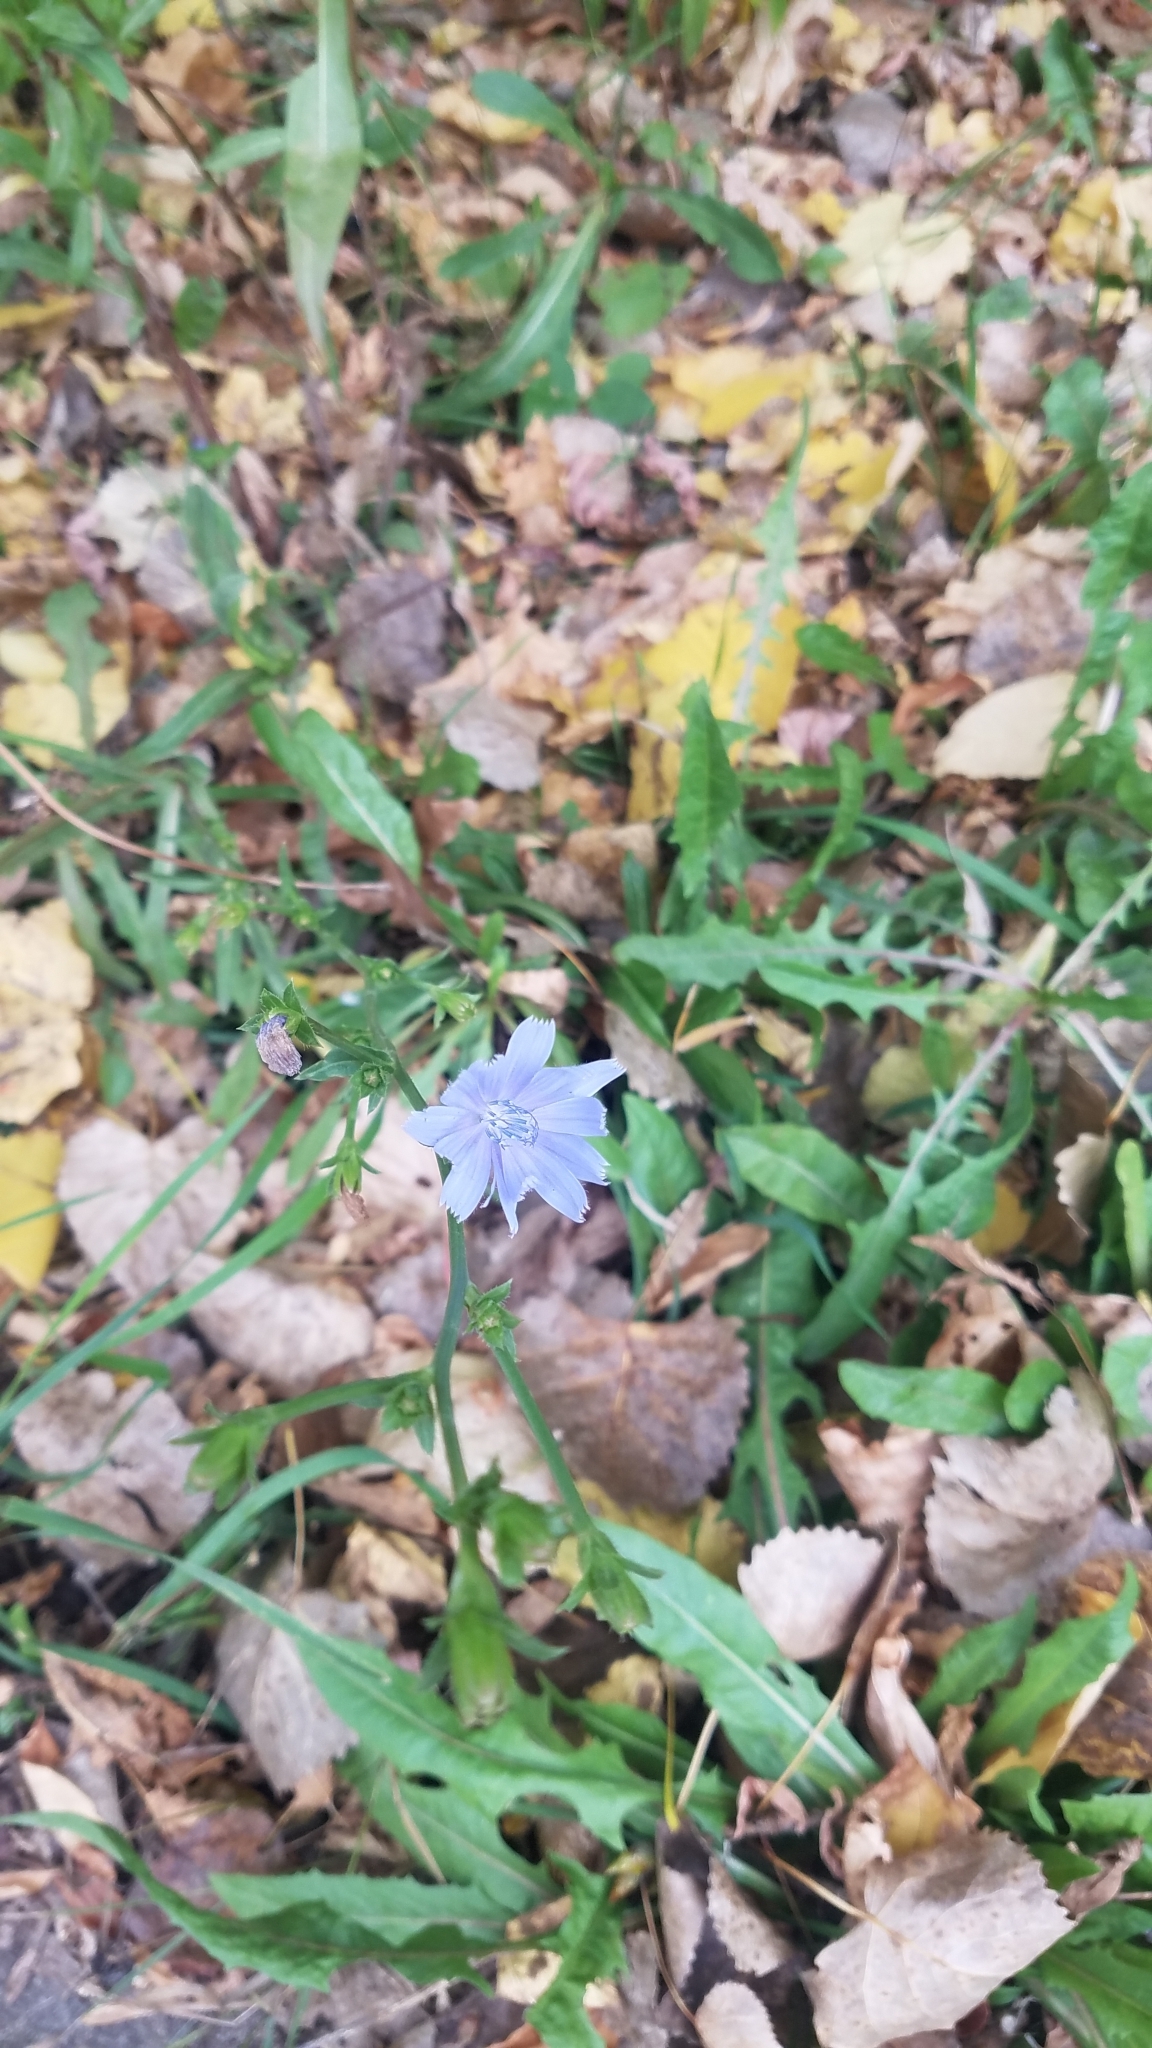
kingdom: Plantae
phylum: Tracheophyta
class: Magnoliopsida
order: Asterales
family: Asteraceae
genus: Cichorium
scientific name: Cichorium intybus
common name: Chicory
